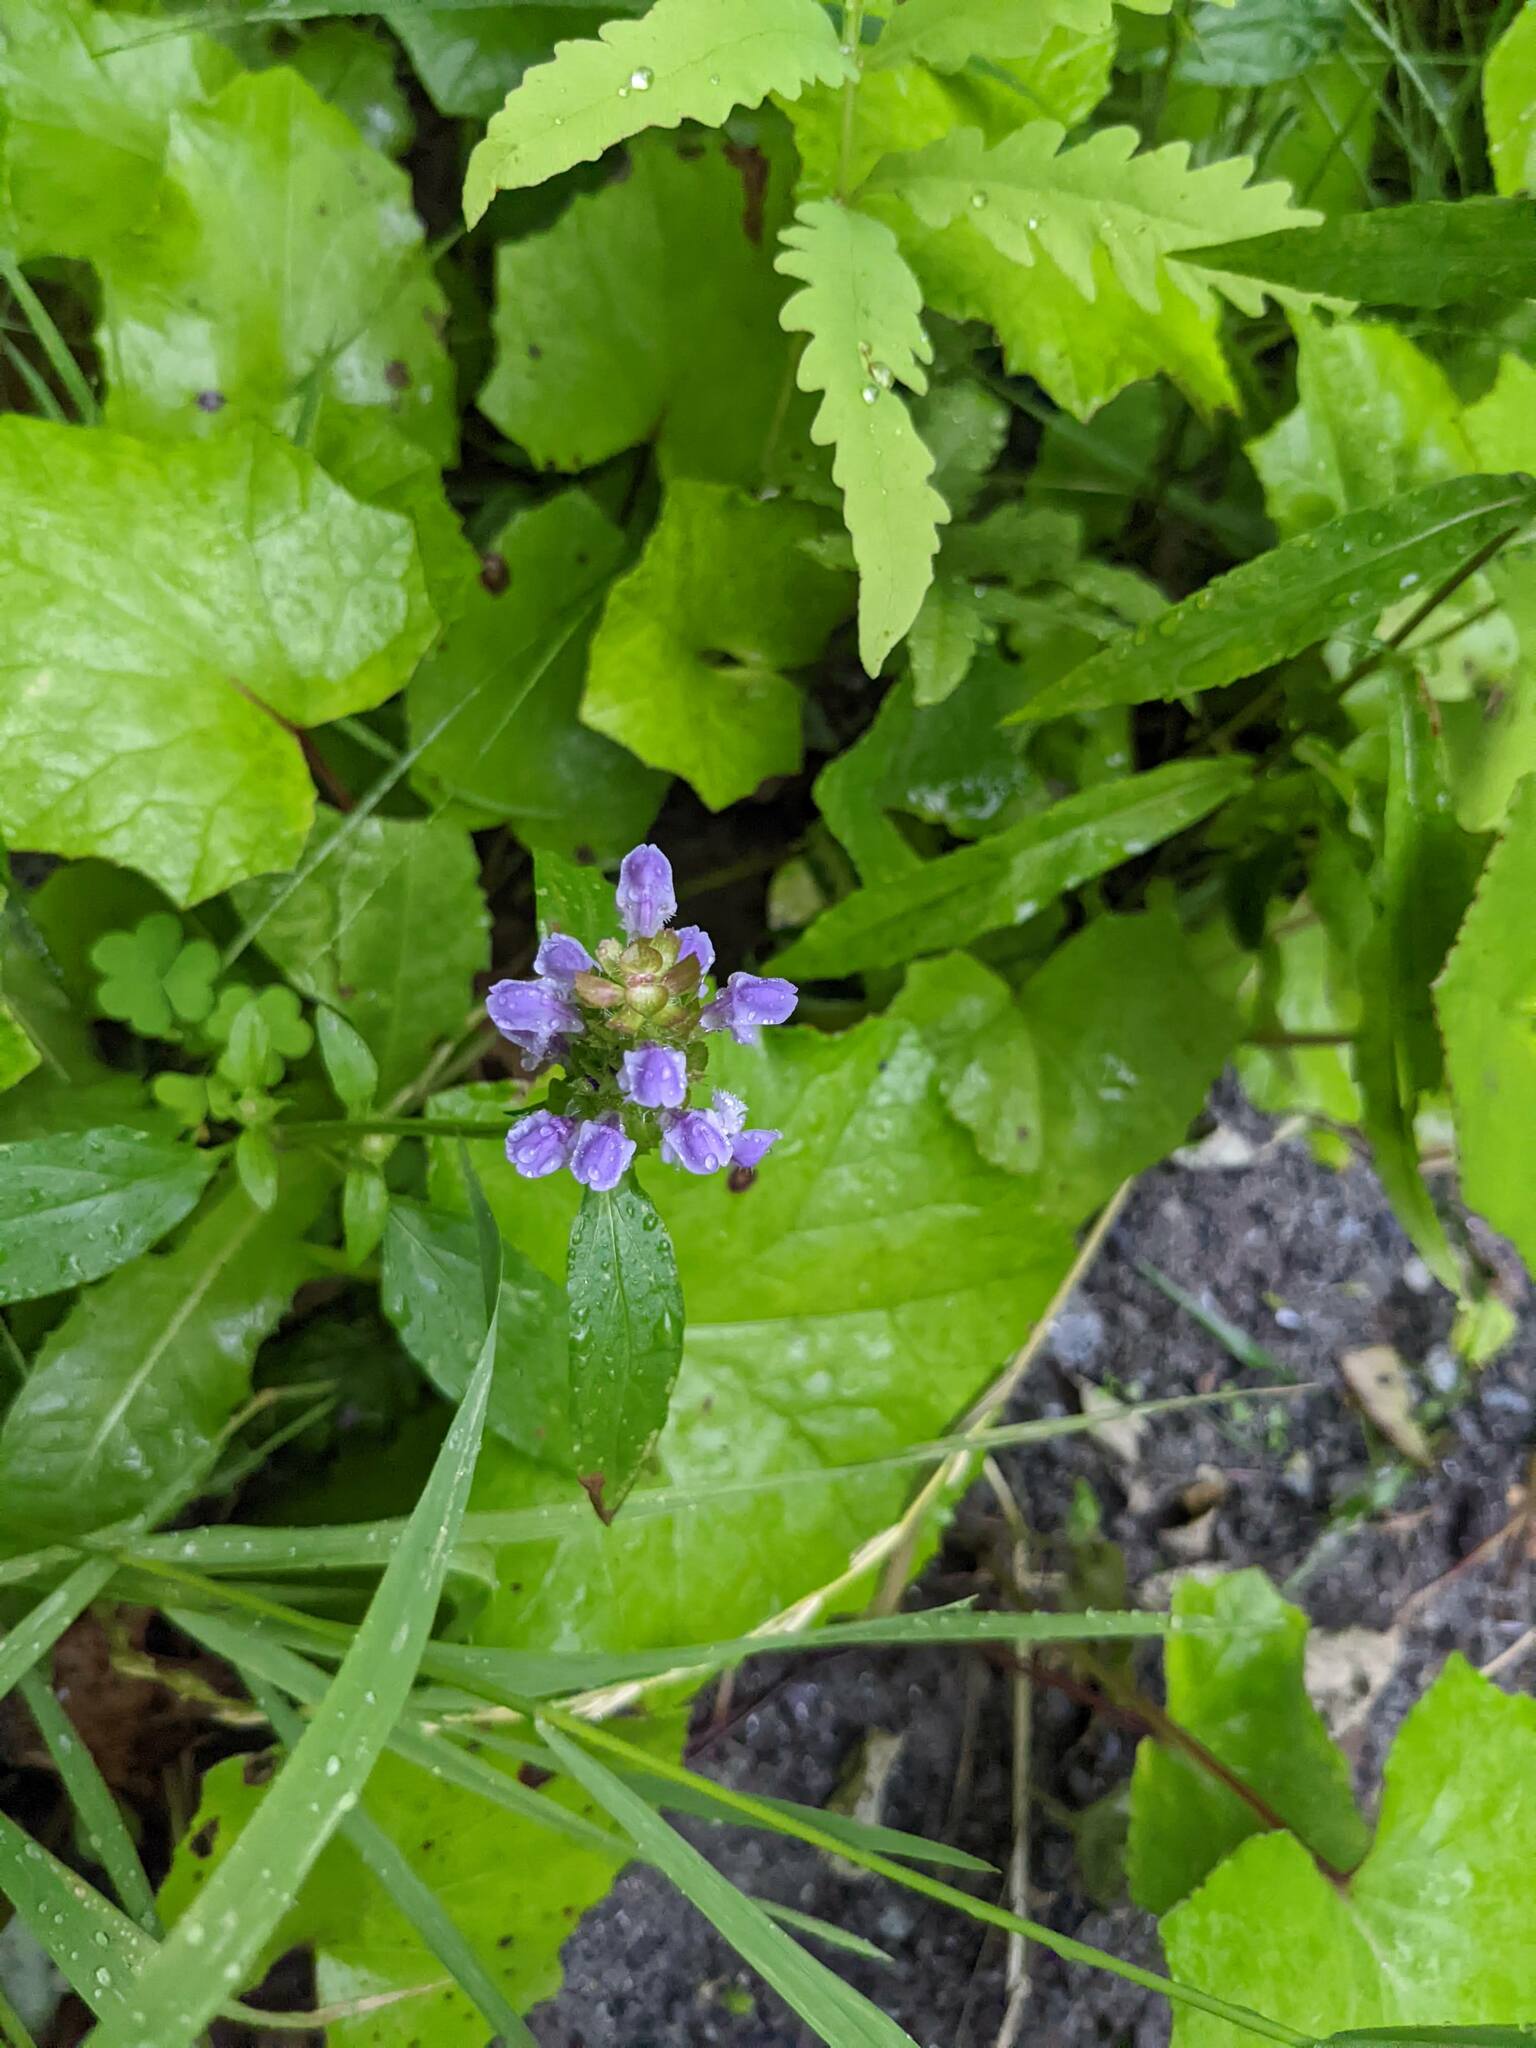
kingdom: Plantae
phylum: Tracheophyta
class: Magnoliopsida
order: Lamiales
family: Lamiaceae
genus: Prunella
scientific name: Prunella vulgaris
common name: Heal-all
